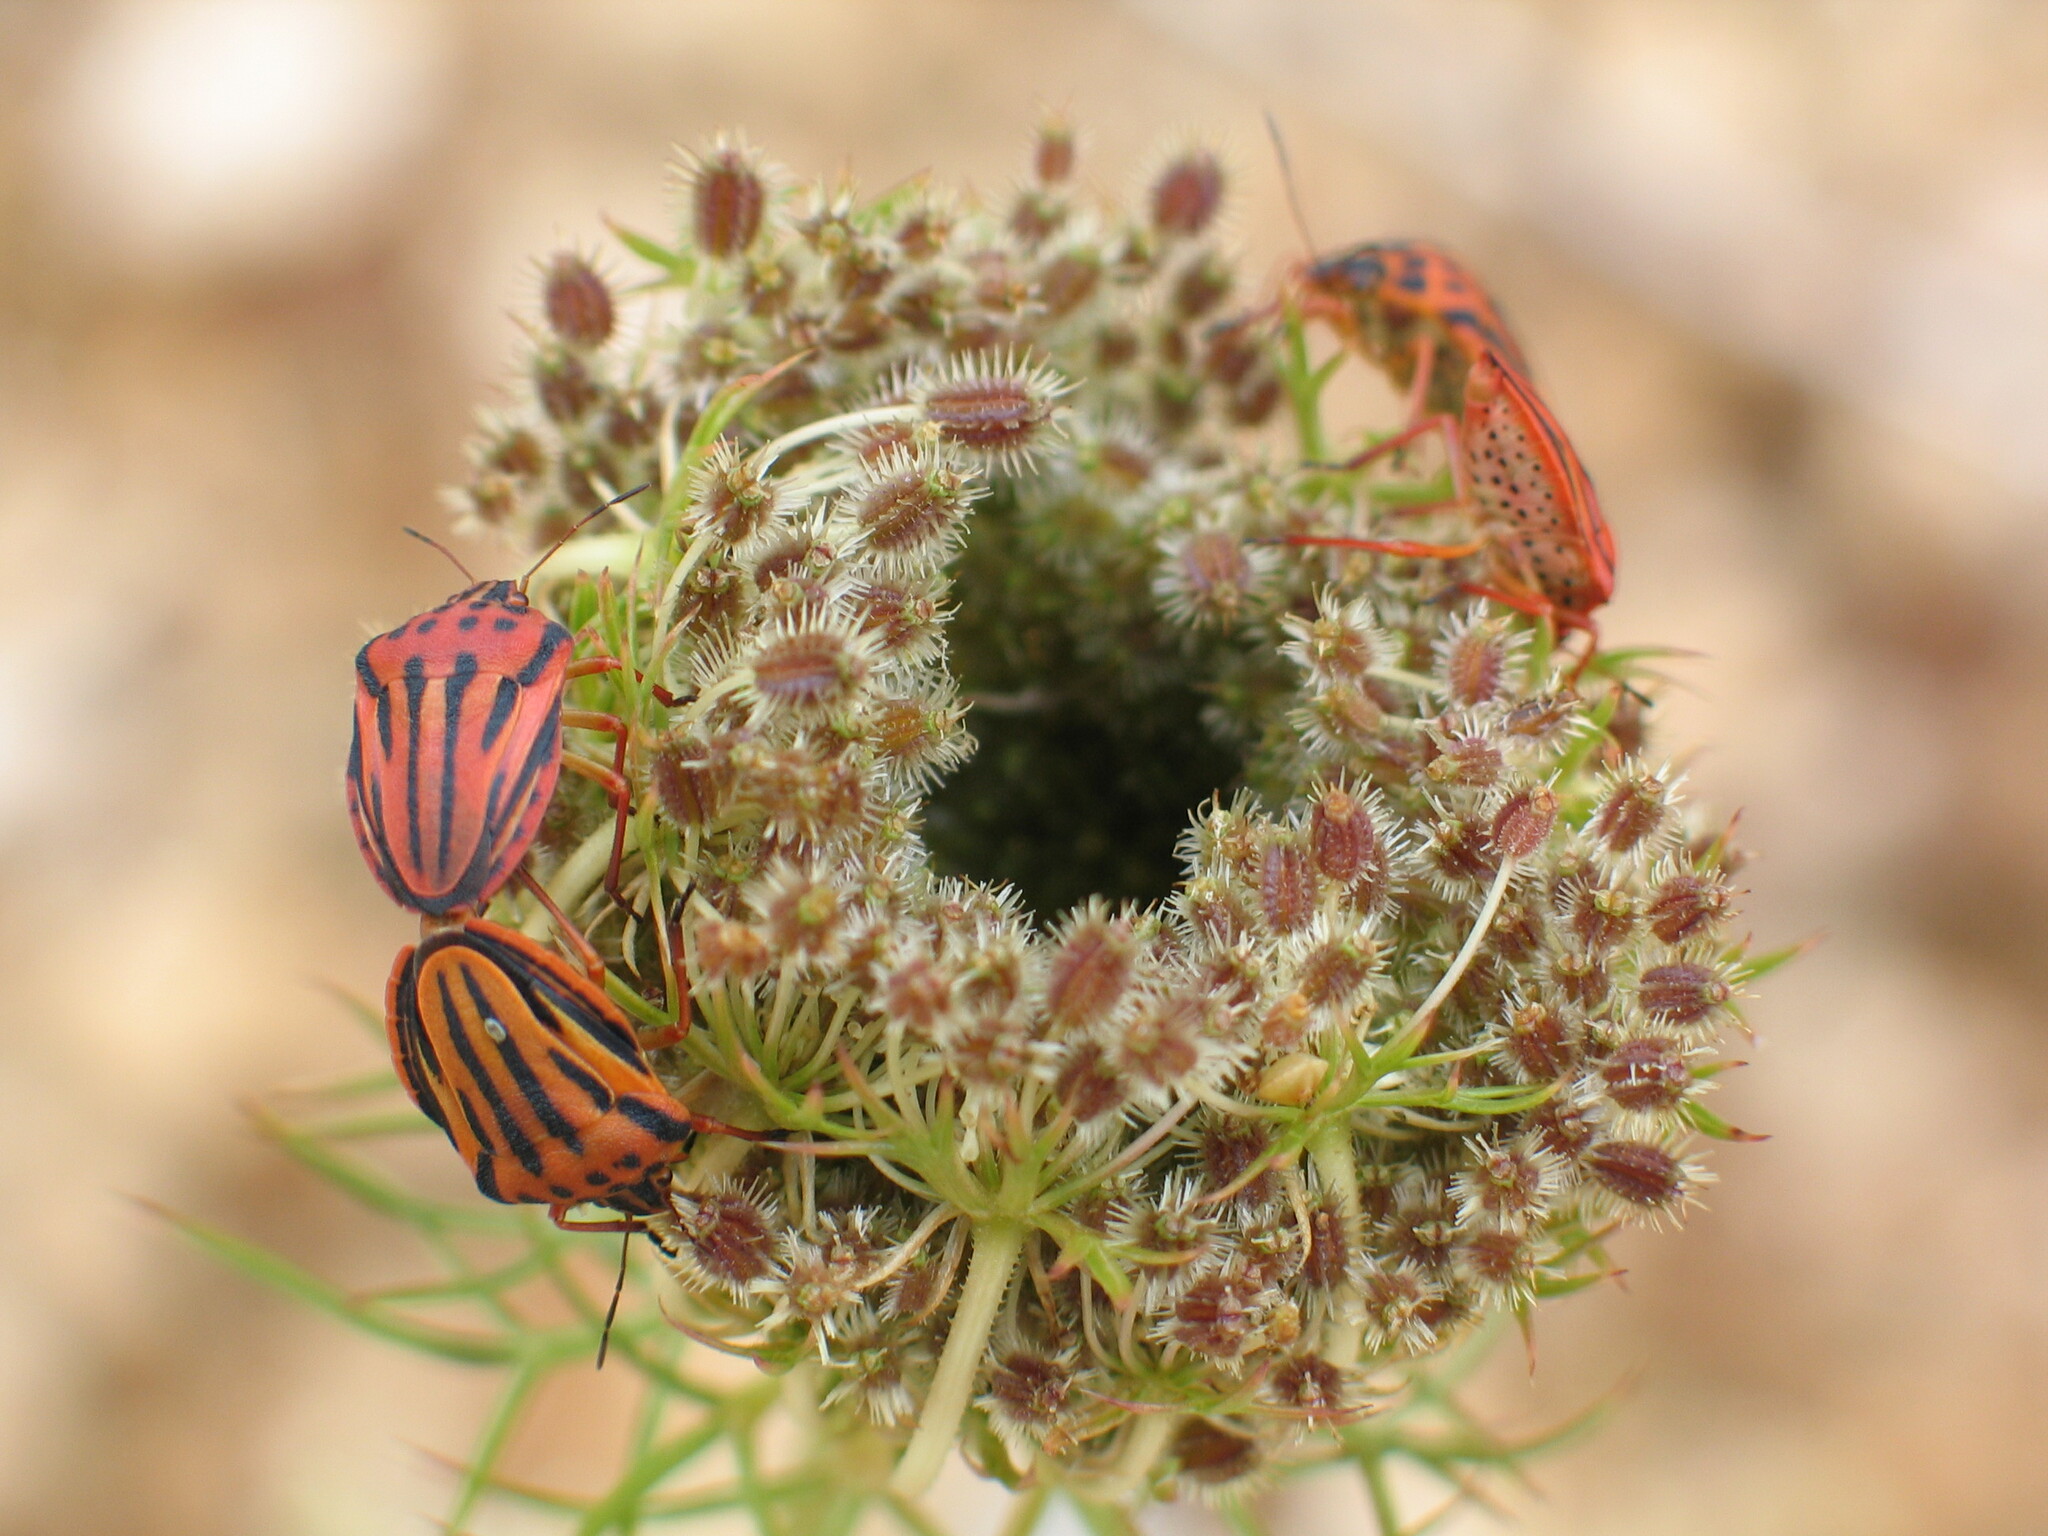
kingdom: Animalia
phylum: Arthropoda
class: Insecta
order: Hemiptera
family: Pentatomidae
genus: Graphosoma
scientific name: Graphosoma semipunctatum
